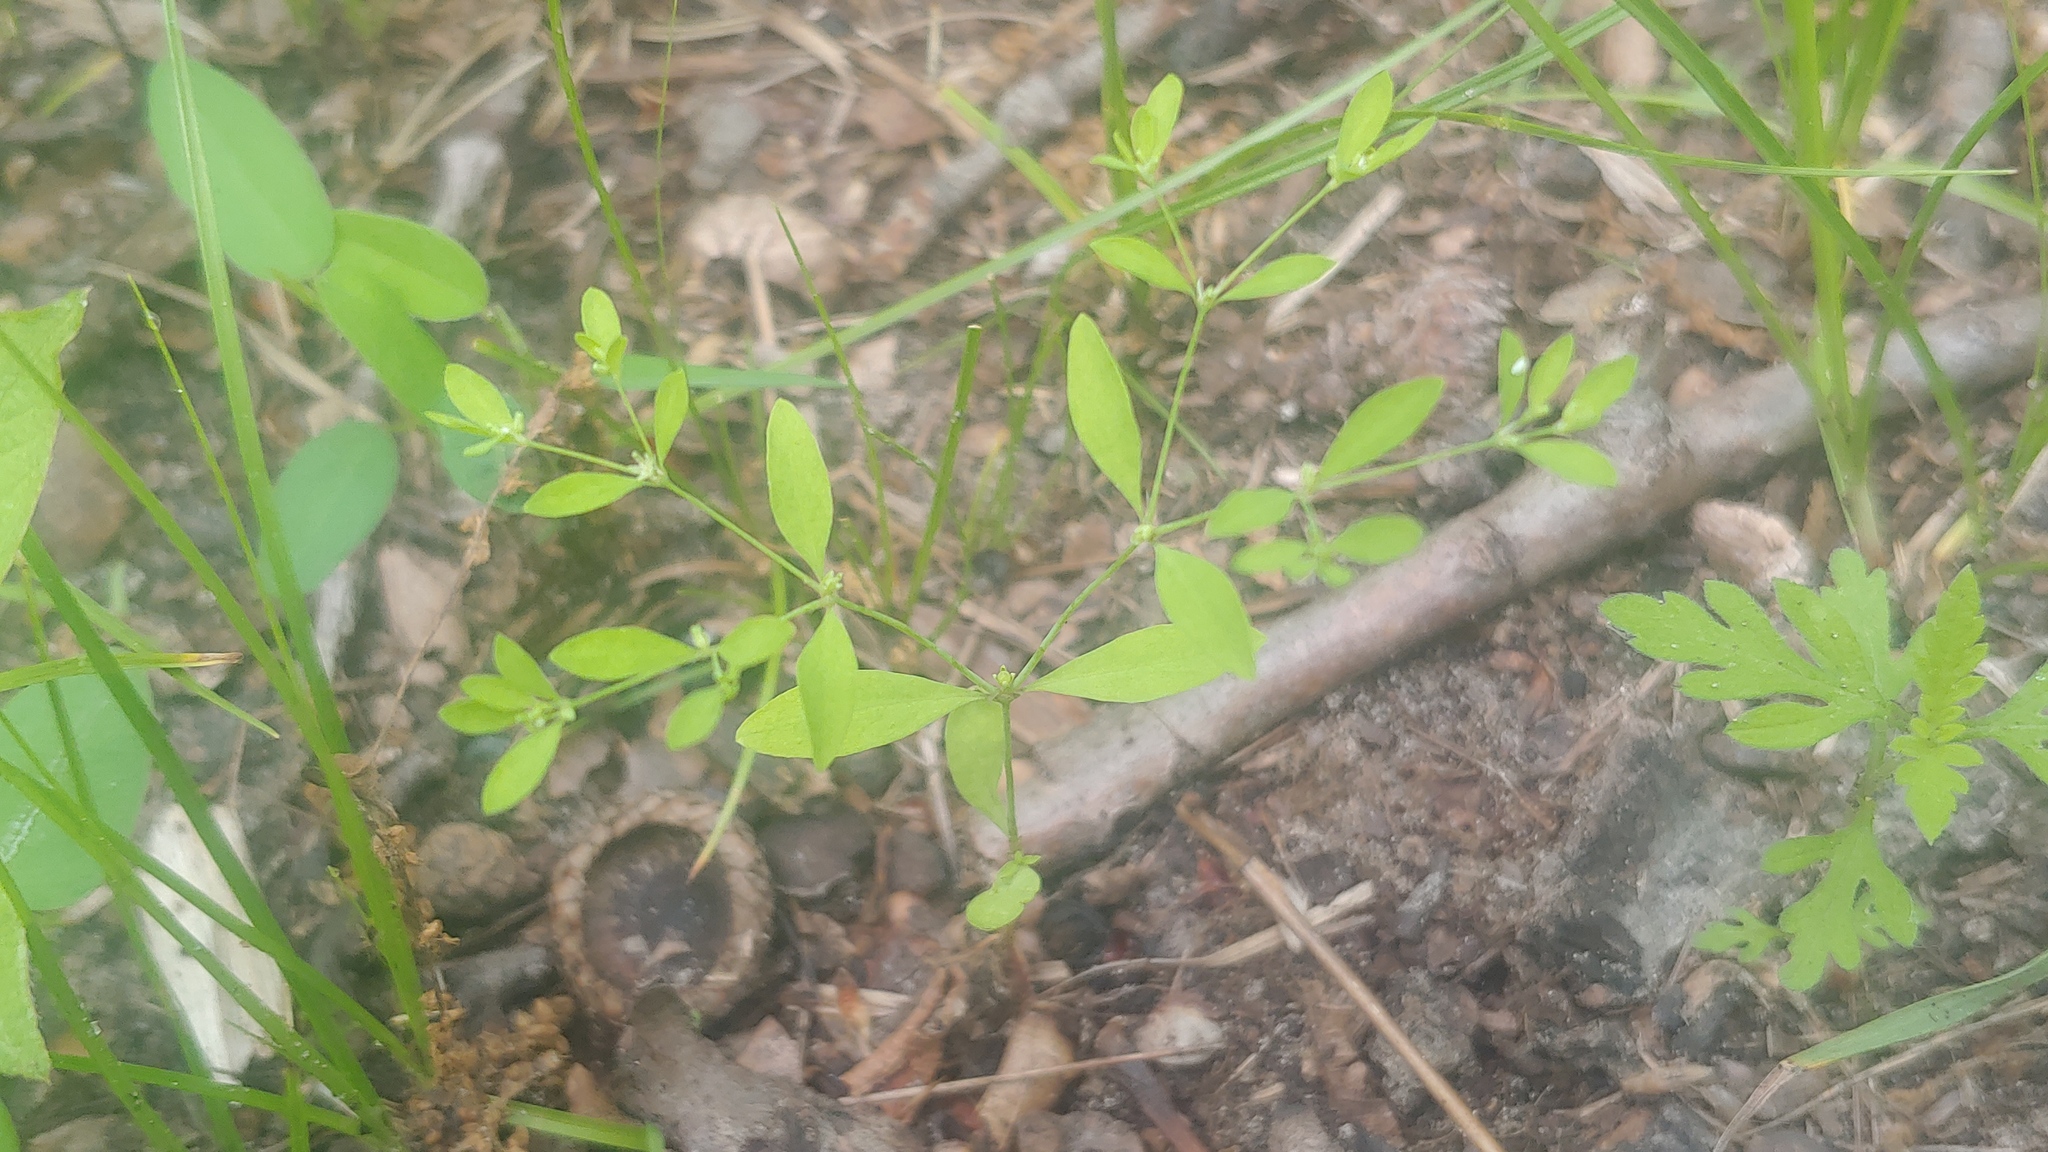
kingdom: Plantae
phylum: Tracheophyta
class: Magnoliopsida
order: Caryophyllales
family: Caryophyllaceae
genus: Paronychia
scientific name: Paronychia canadensis
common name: Canada forked nailwort
